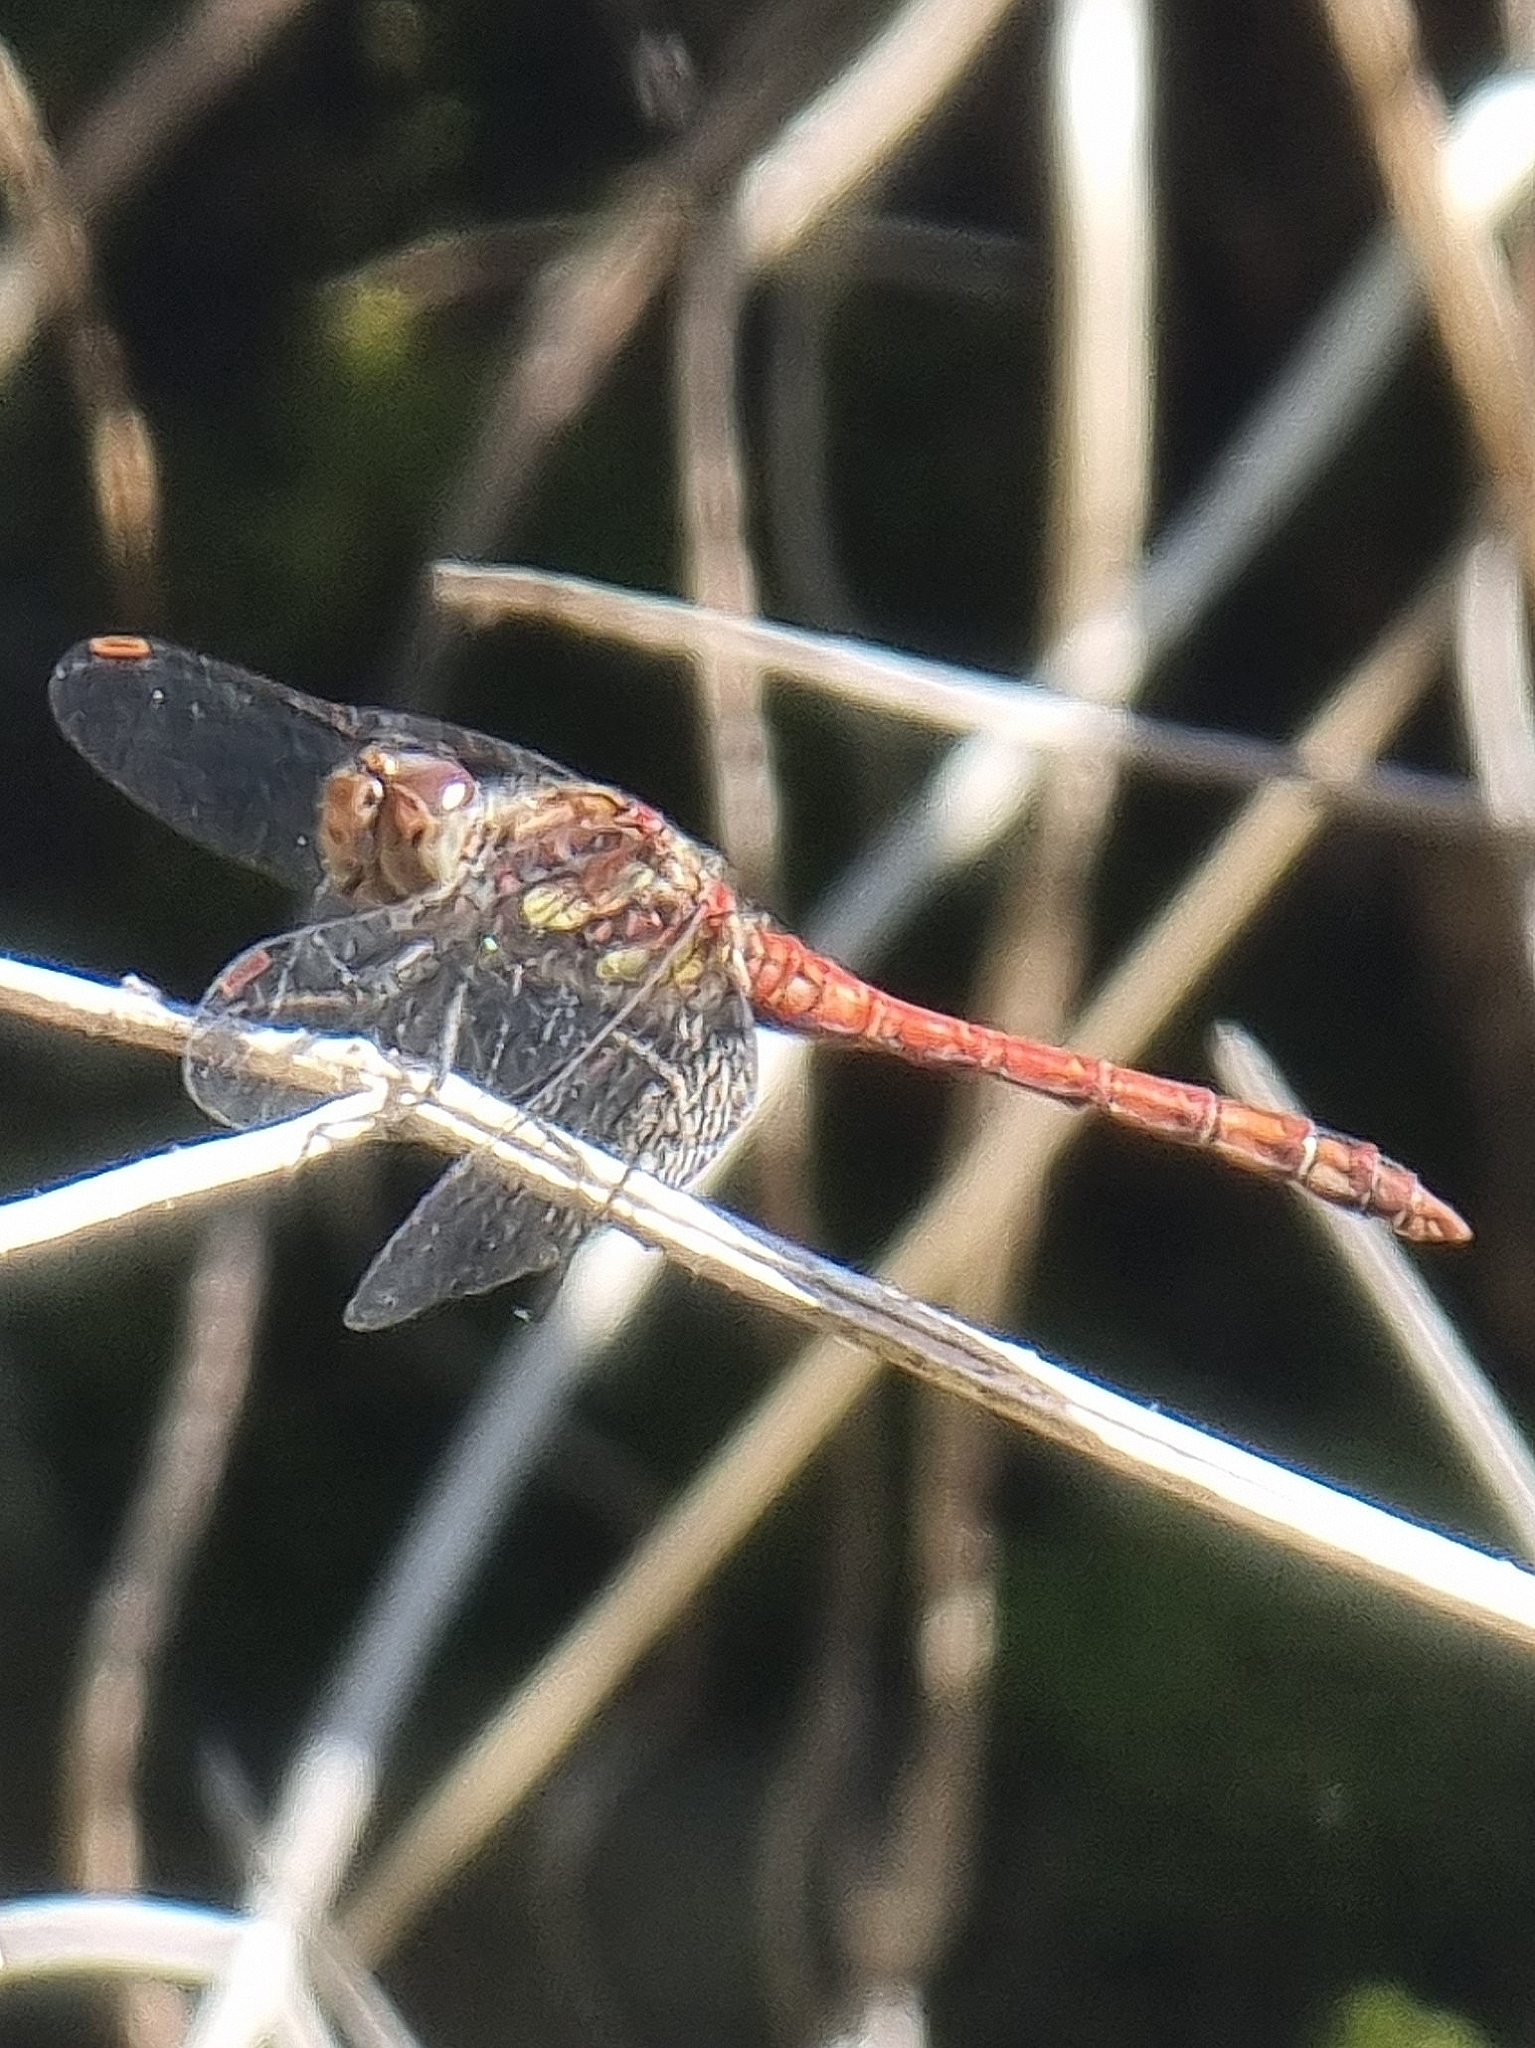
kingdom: Animalia
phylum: Arthropoda
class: Insecta
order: Odonata
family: Libellulidae
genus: Sympetrum
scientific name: Sympetrum nigrifemur
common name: Island darter
